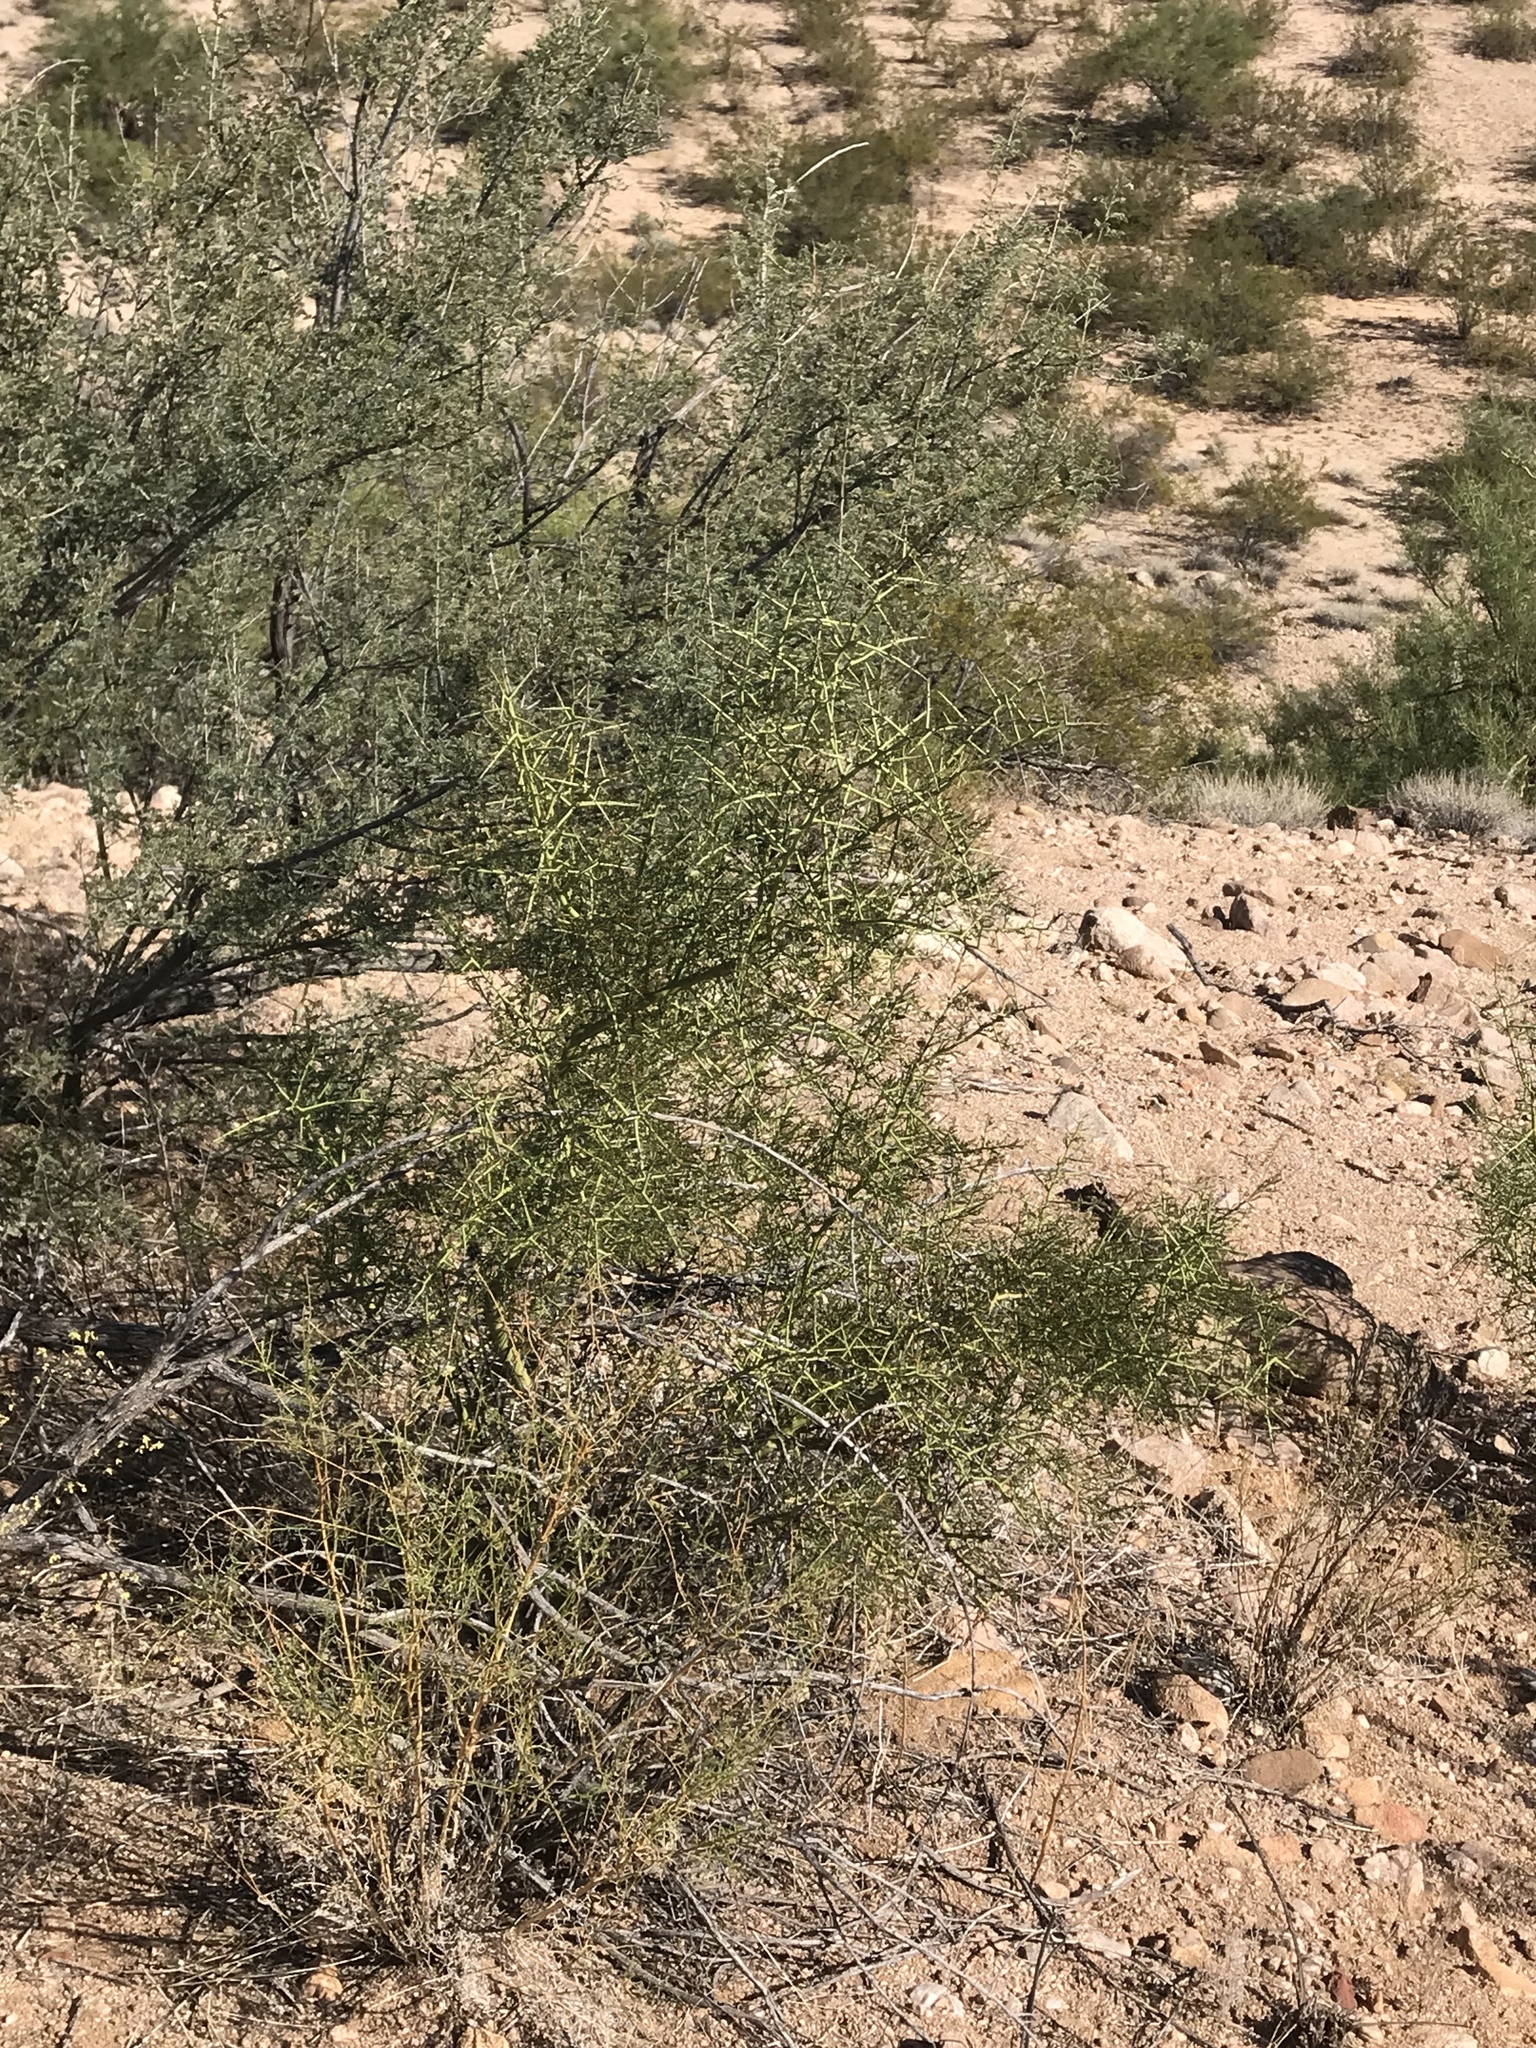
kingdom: Plantae
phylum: Tracheophyta
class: Magnoliopsida
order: Fabales
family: Fabaceae
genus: Parkinsonia
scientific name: Parkinsonia microphylla
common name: Yellow paloverde
